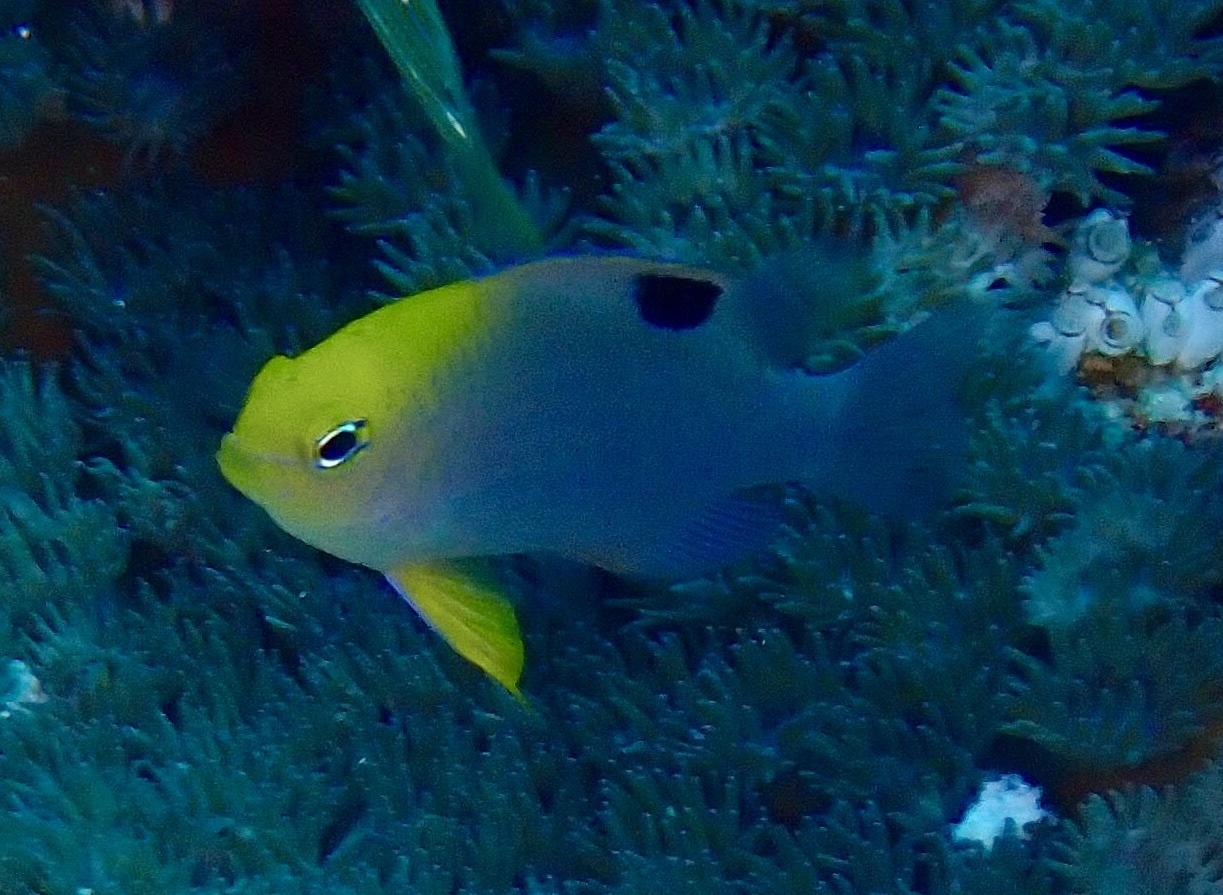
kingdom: Animalia
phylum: Chordata
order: Perciformes
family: Pomacentridae
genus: Chrysiptera
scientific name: Chrysiptera talboti
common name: Talbot's demoiselle
